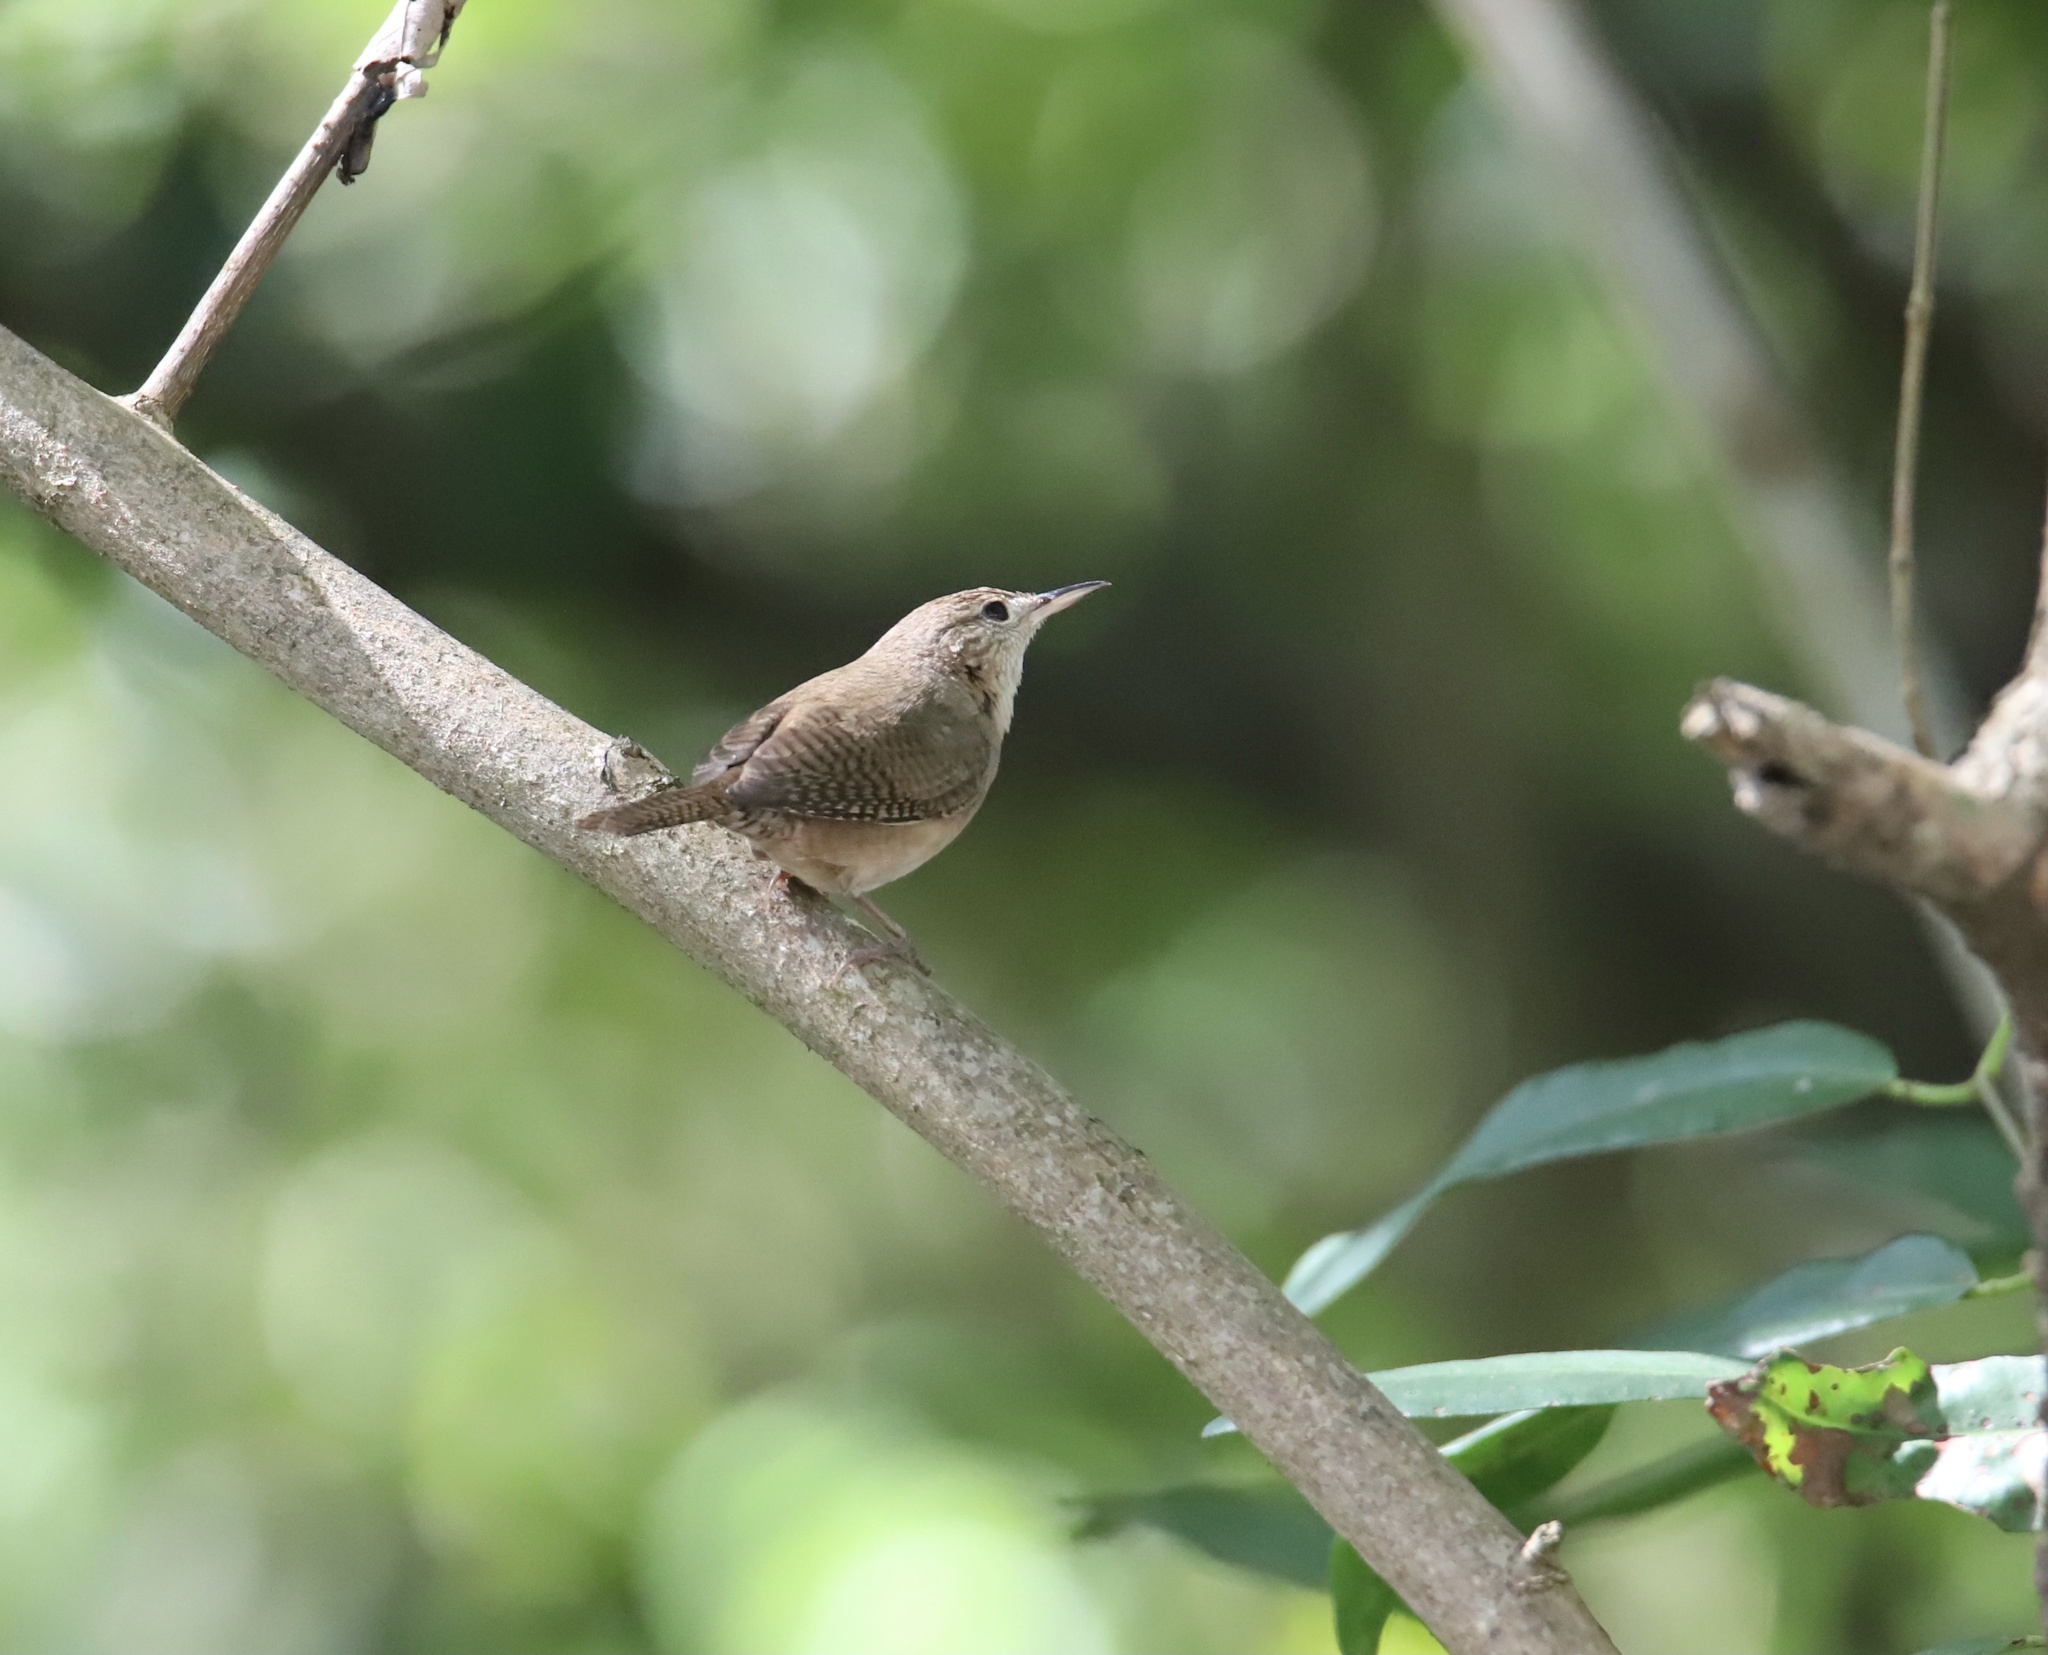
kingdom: Animalia
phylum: Chordata
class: Aves
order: Passeriformes
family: Troglodytidae
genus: Troglodytes
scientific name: Troglodytes aedon
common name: House wren
